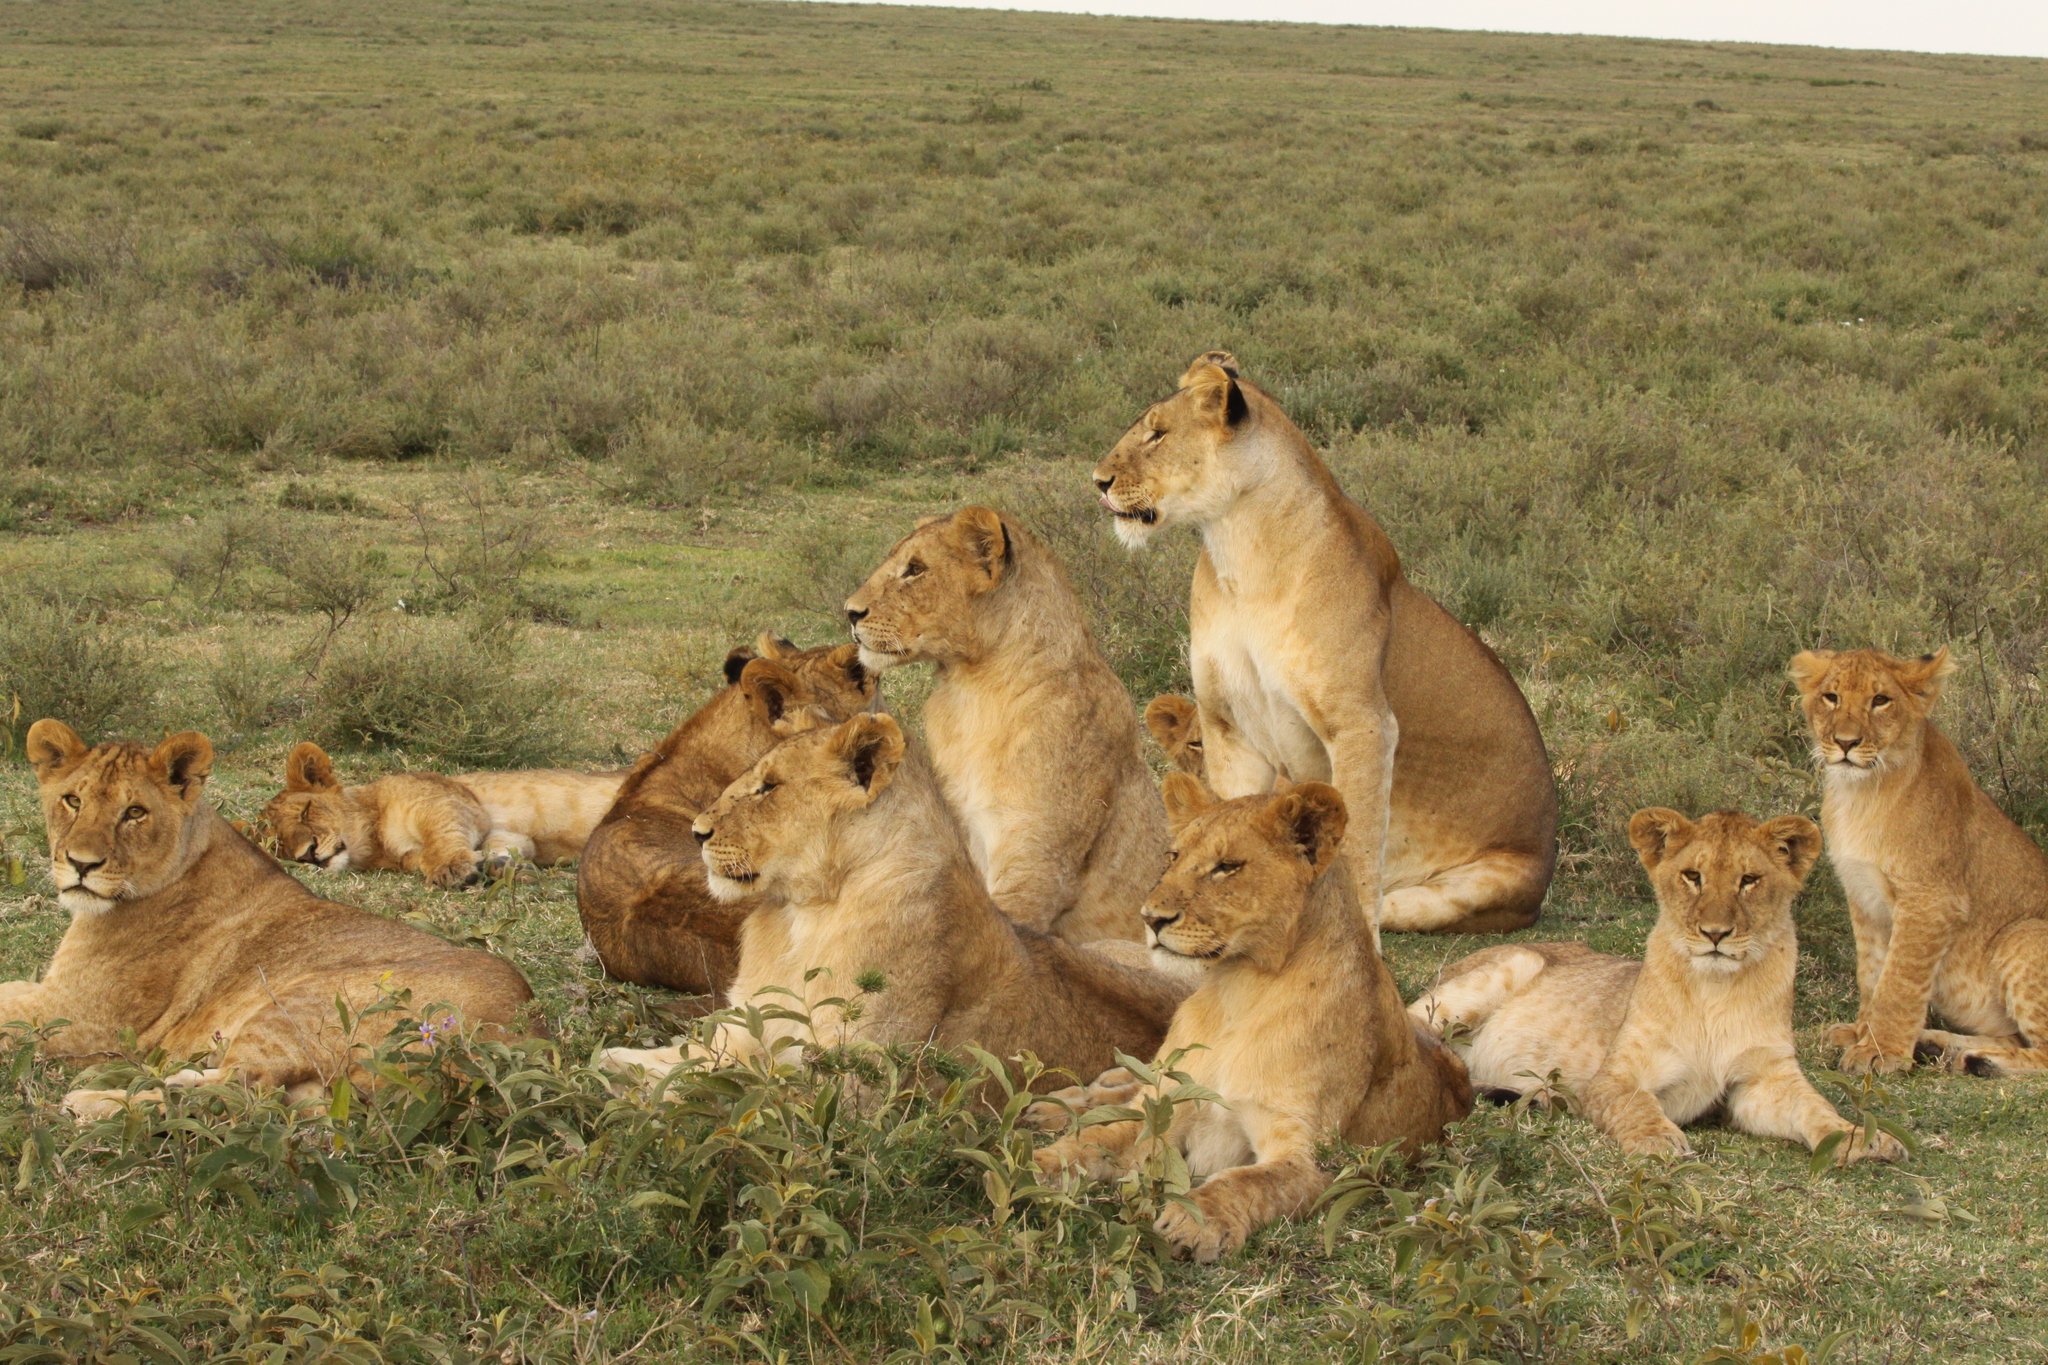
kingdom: Animalia
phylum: Chordata
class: Mammalia
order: Carnivora
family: Felidae
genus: Panthera
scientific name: Panthera leo
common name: Lion
